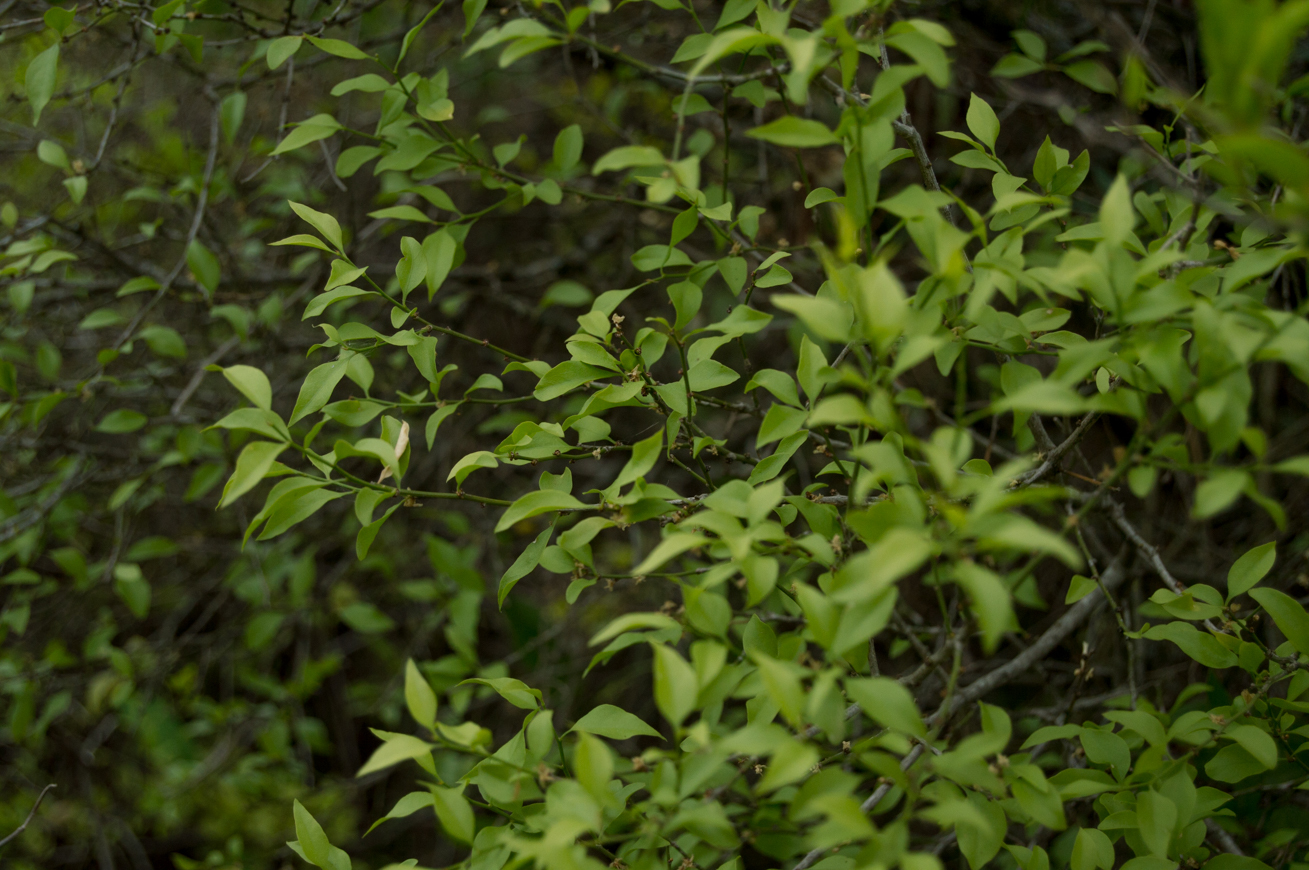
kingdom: Plantae
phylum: Tracheophyta
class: Magnoliopsida
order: Celastrales
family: Celastraceae
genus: Schaefferia
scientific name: Schaefferia argentinensis
